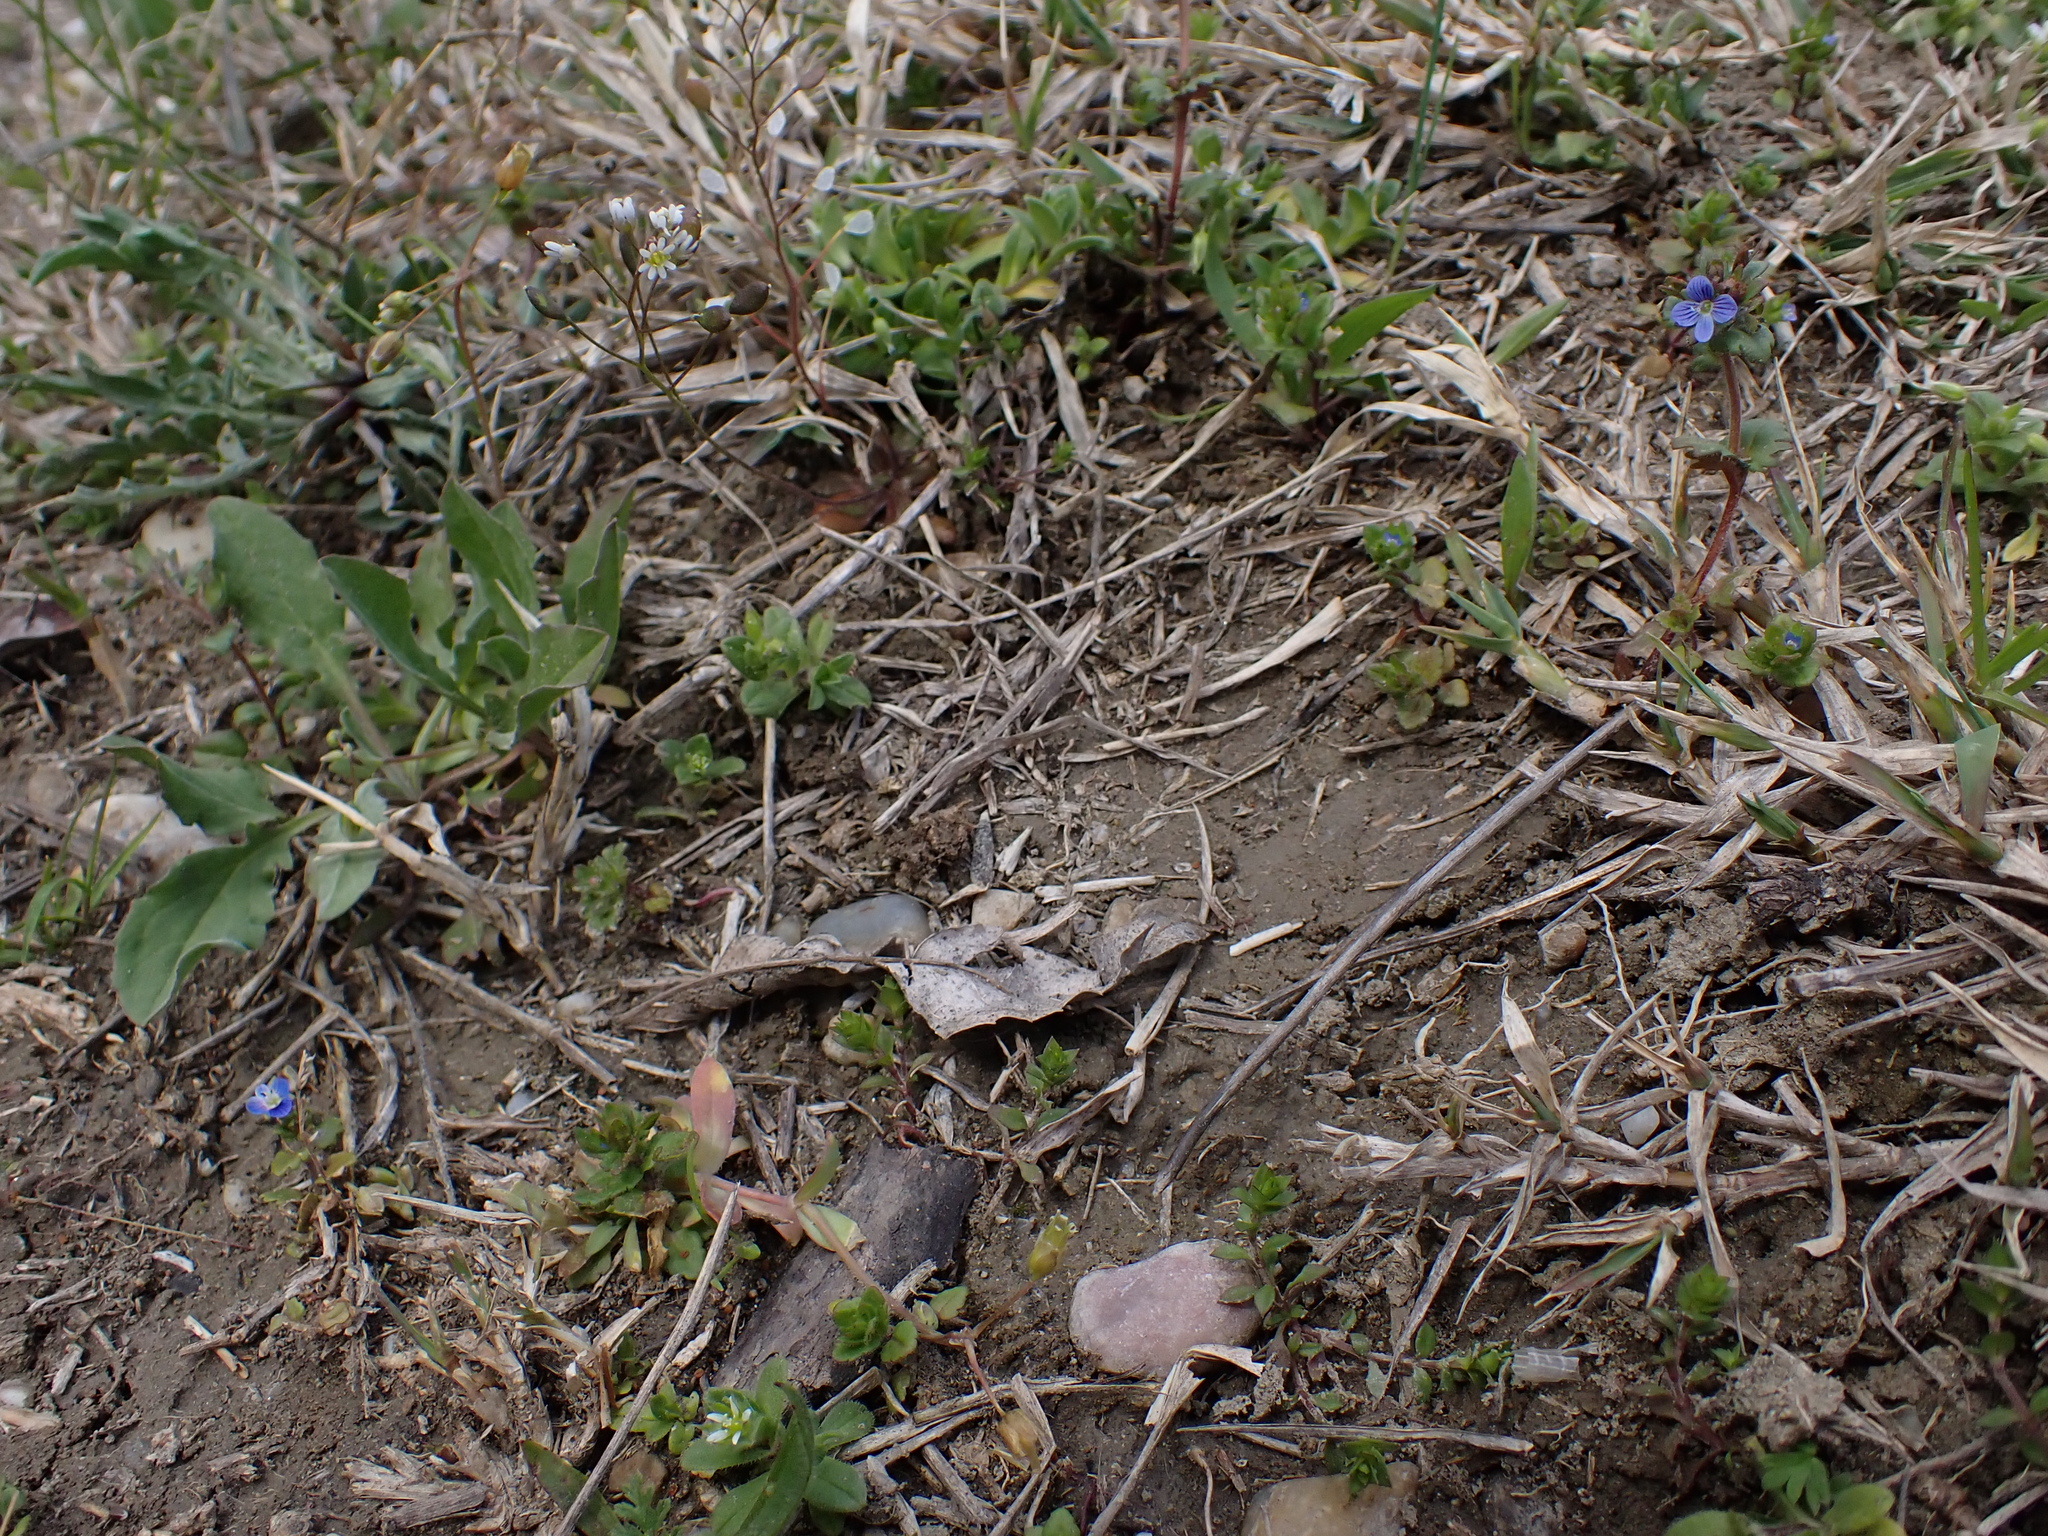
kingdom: Plantae
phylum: Tracheophyta
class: Magnoliopsida
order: Lamiales
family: Plantaginaceae
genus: Veronica
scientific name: Veronica praecox
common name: Breckland speedwell
